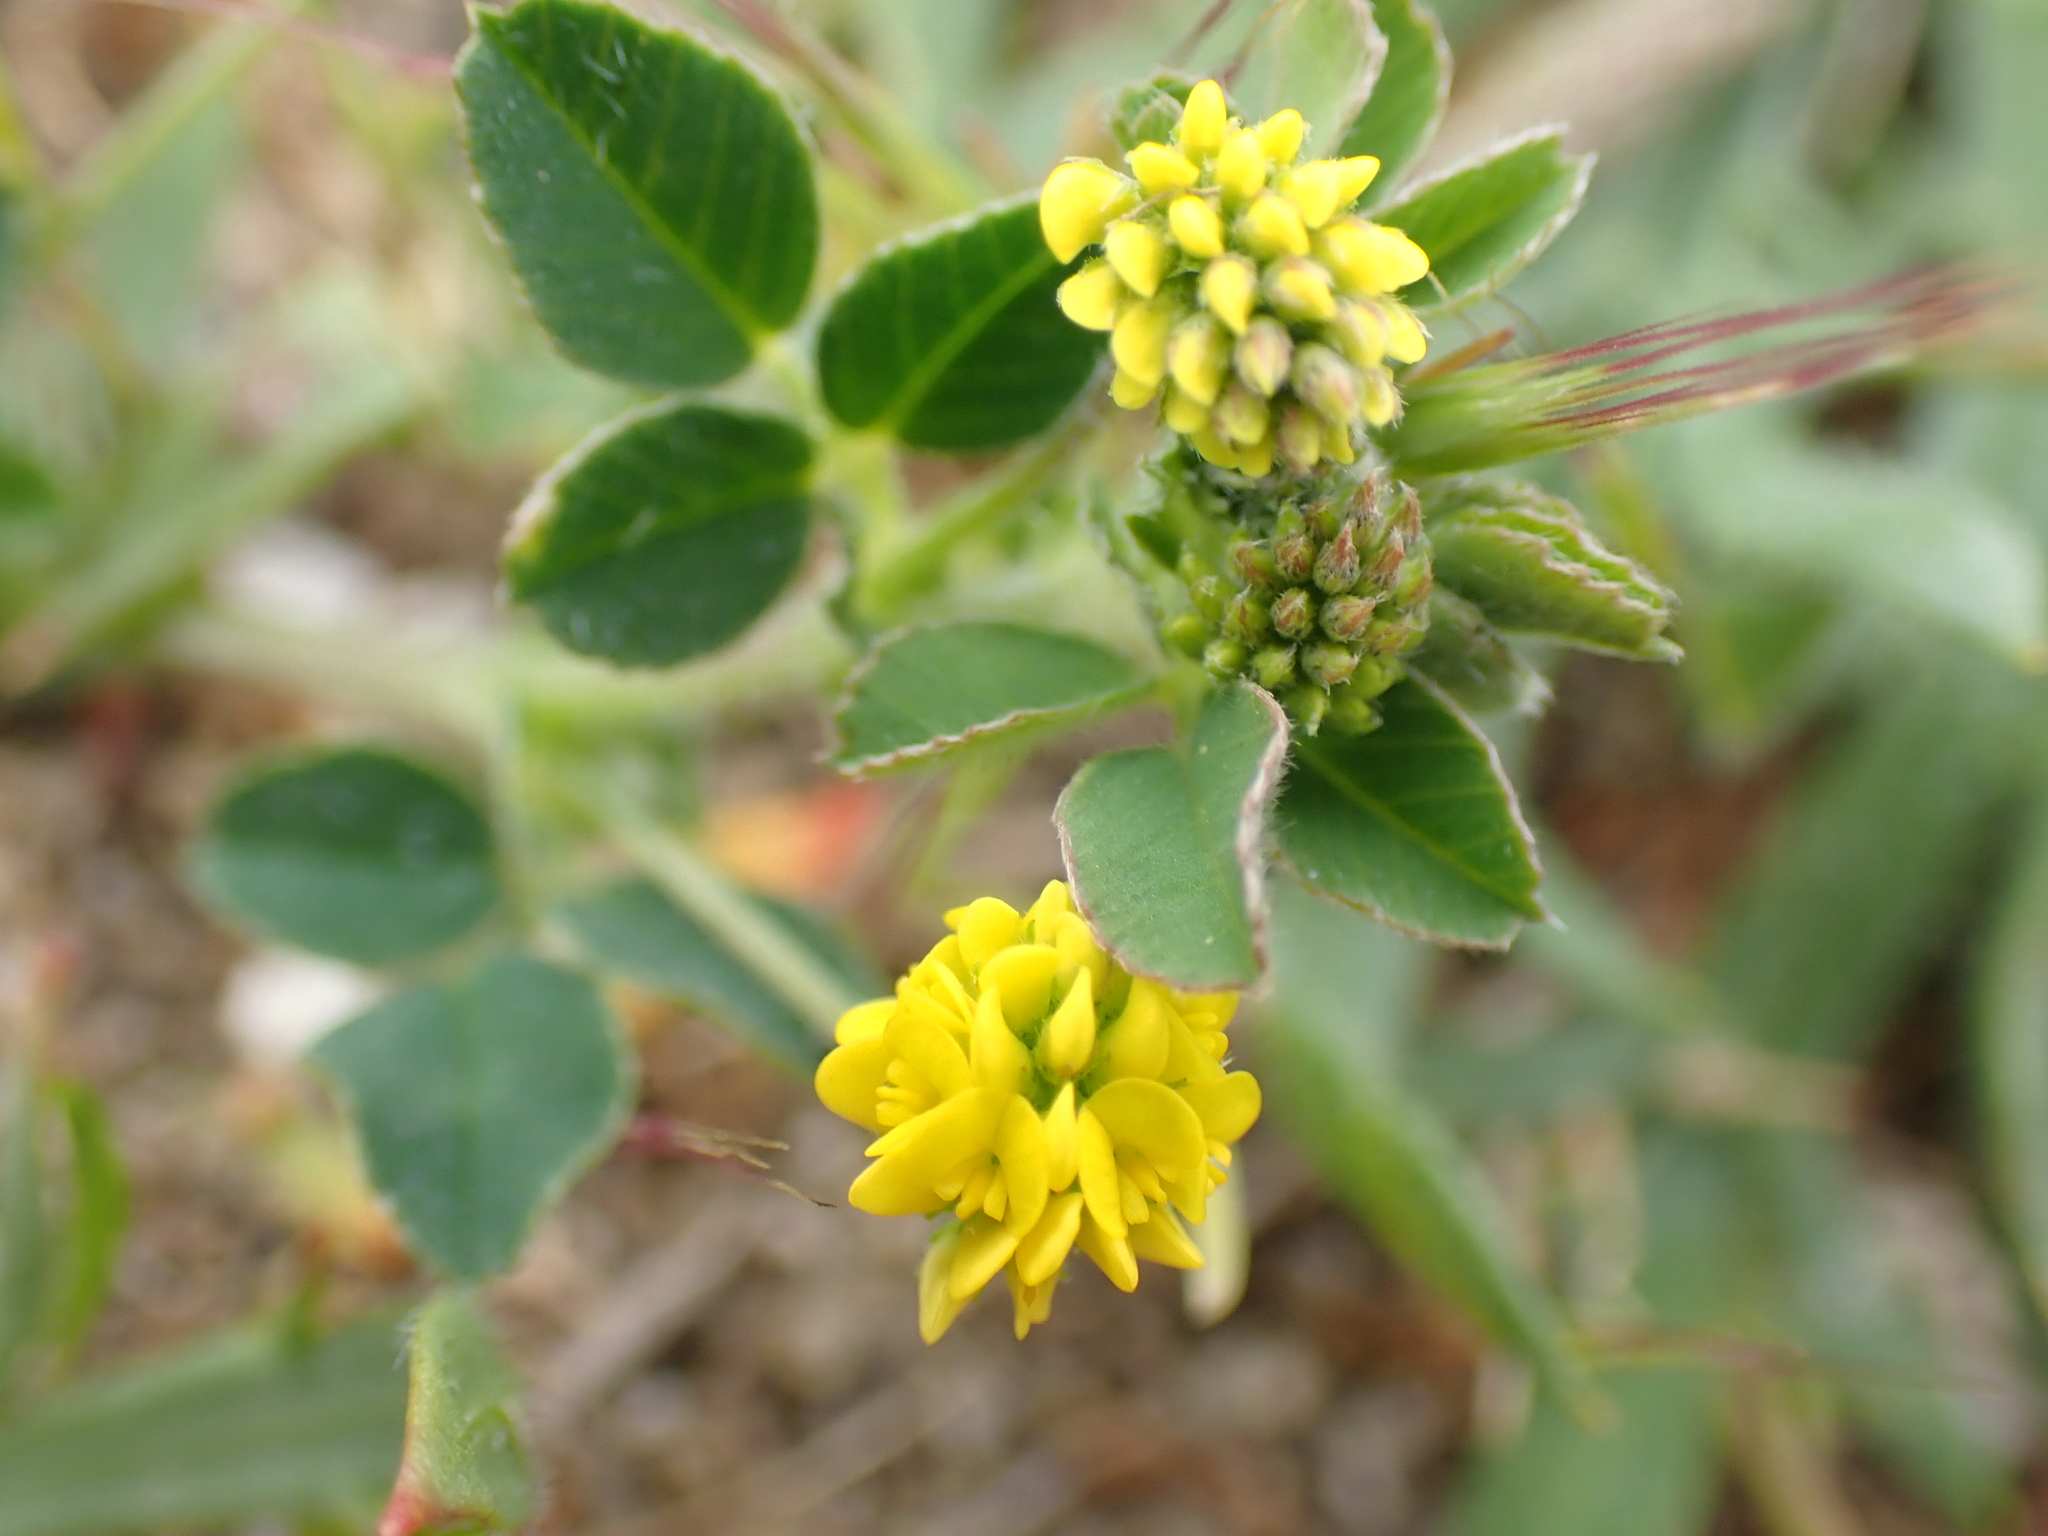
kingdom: Plantae
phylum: Tracheophyta
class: Magnoliopsida
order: Fabales
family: Fabaceae
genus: Medicago
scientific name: Medicago lupulina
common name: Black medick
